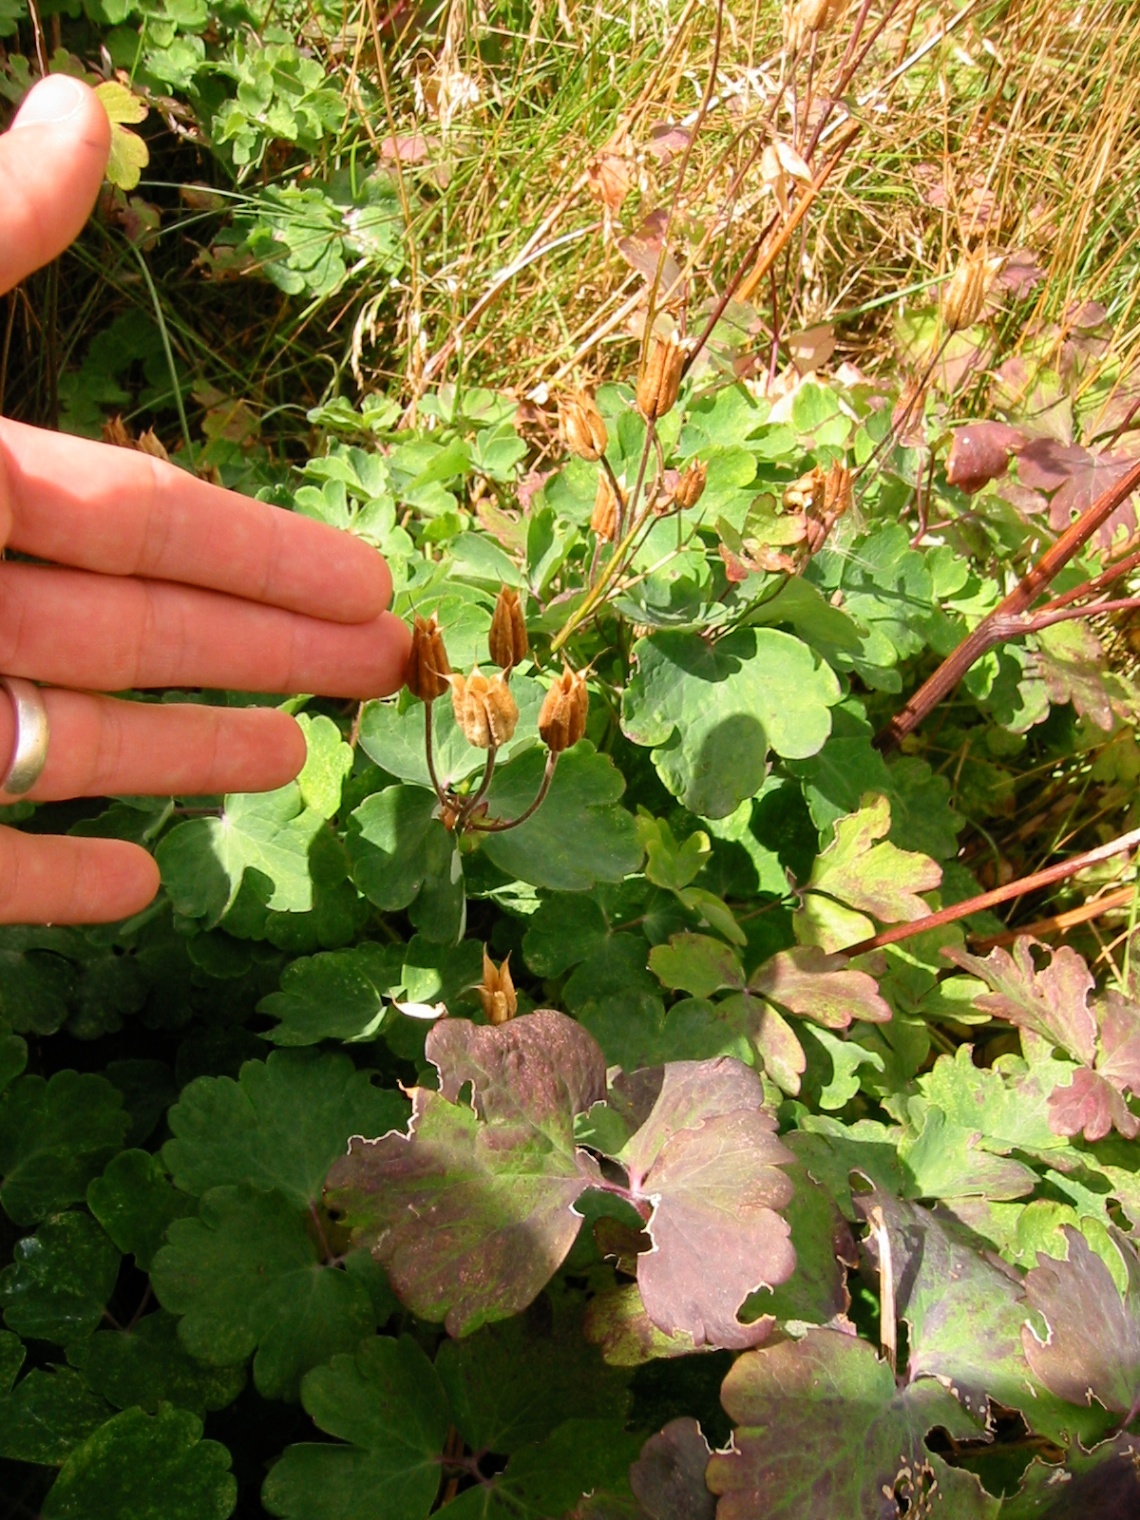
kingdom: Plantae
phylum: Tracheophyta
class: Magnoliopsida
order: Ranunculales
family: Ranunculaceae
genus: Aquilegia
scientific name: Aquilegia vulgaris
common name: Columbine
